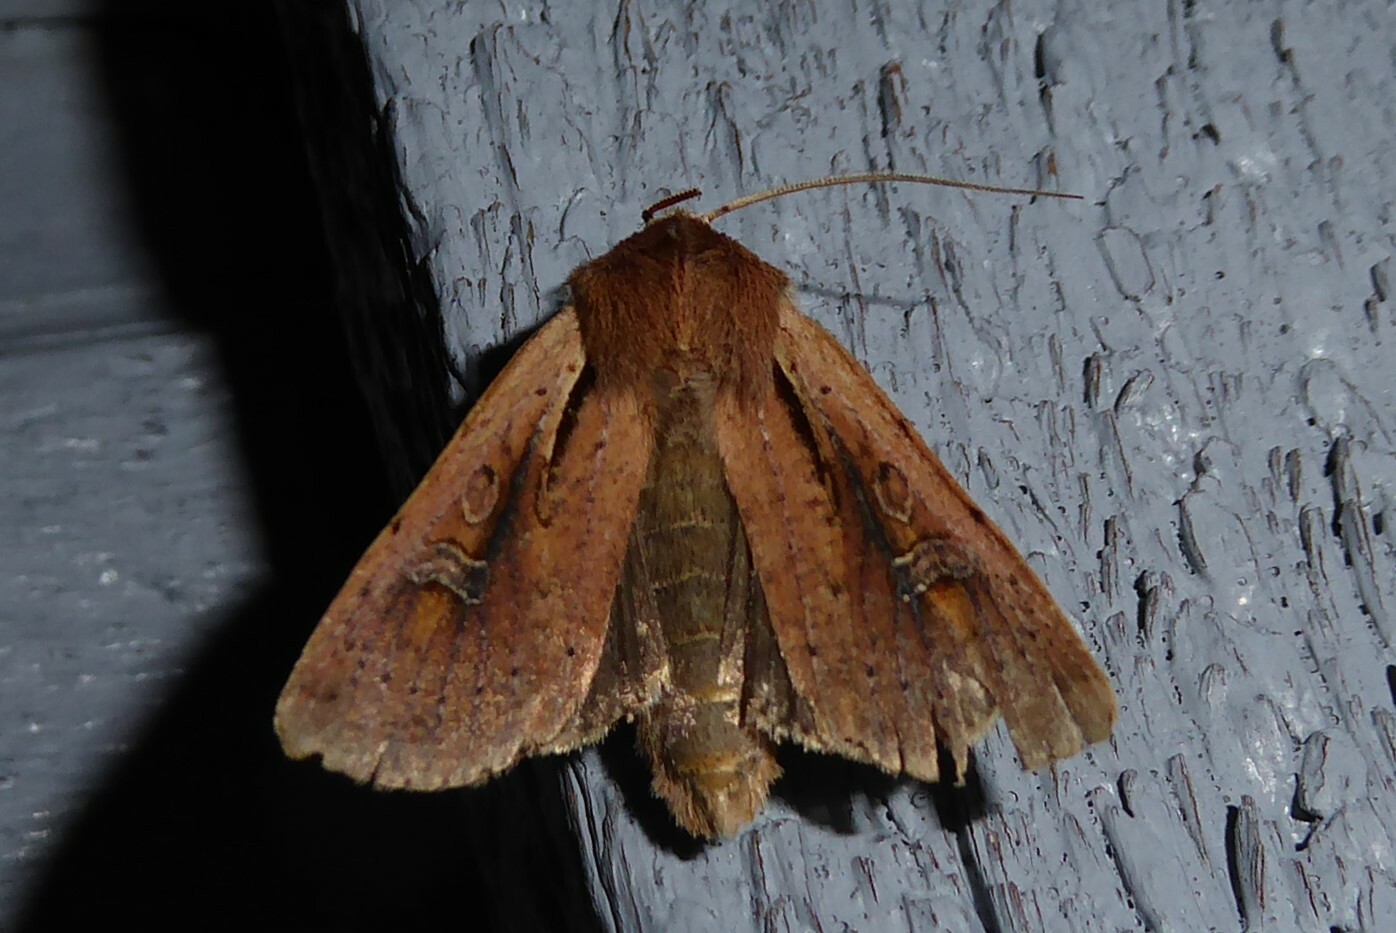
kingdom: Animalia
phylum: Arthropoda
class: Insecta
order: Lepidoptera
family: Noctuidae
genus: Ichneutica
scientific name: Ichneutica atristriga
